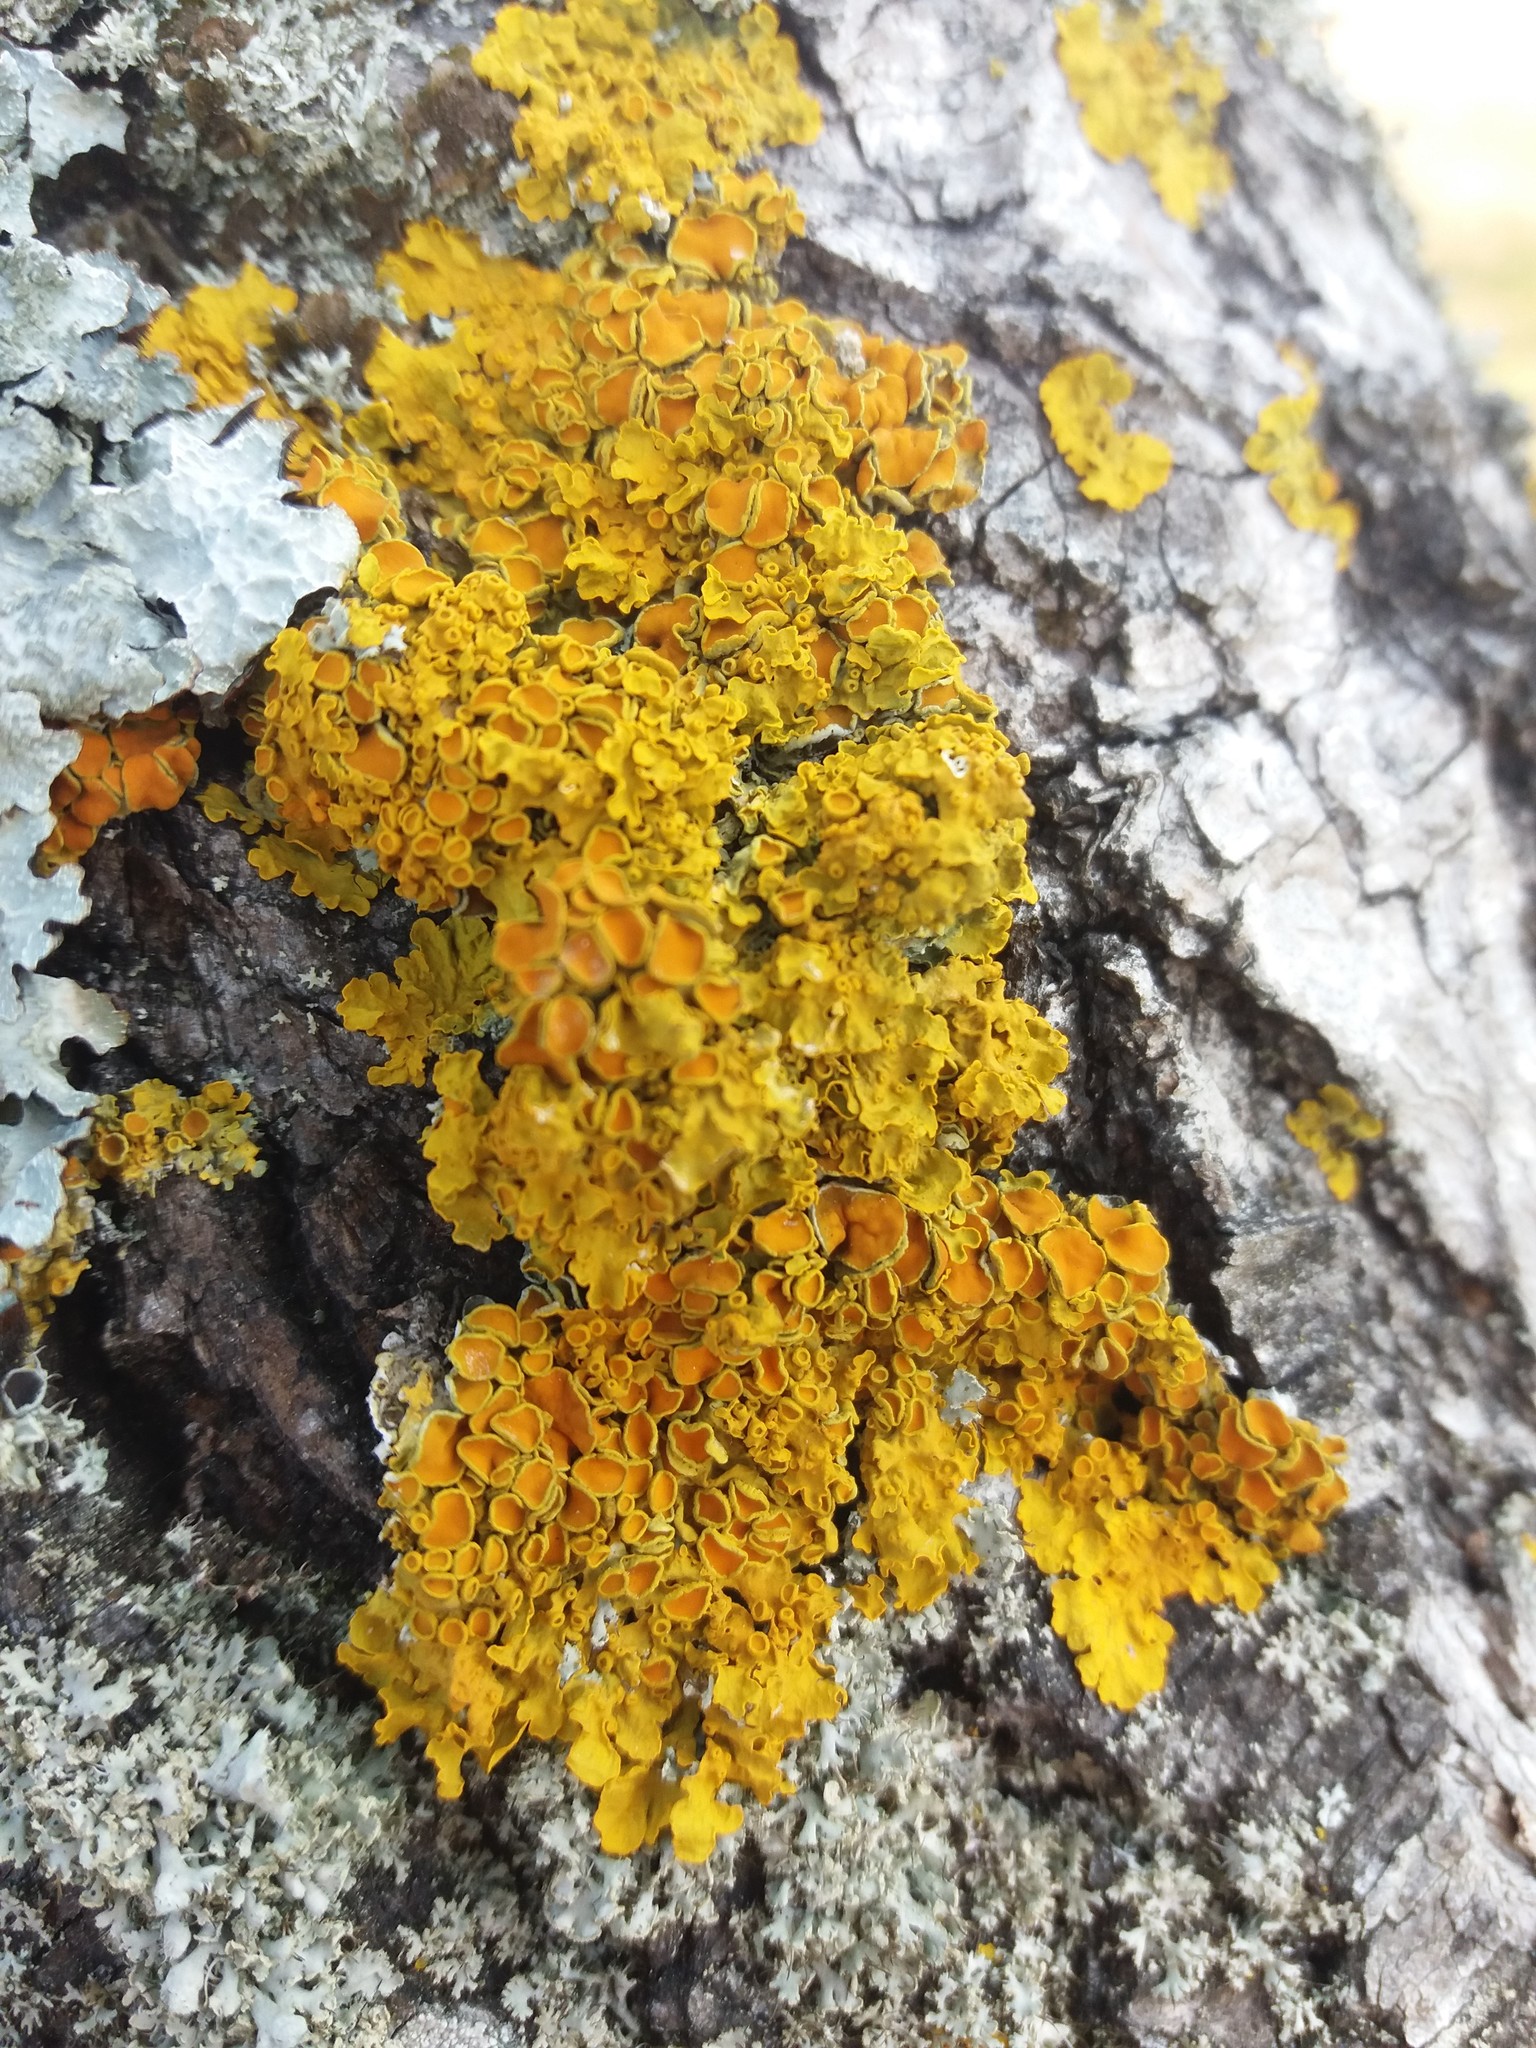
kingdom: Fungi
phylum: Ascomycota
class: Lecanoromycetes
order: Teloschistales
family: Teloschistaceae
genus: Xanthoria
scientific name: Xanthoria parietina
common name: Common orange lichen
